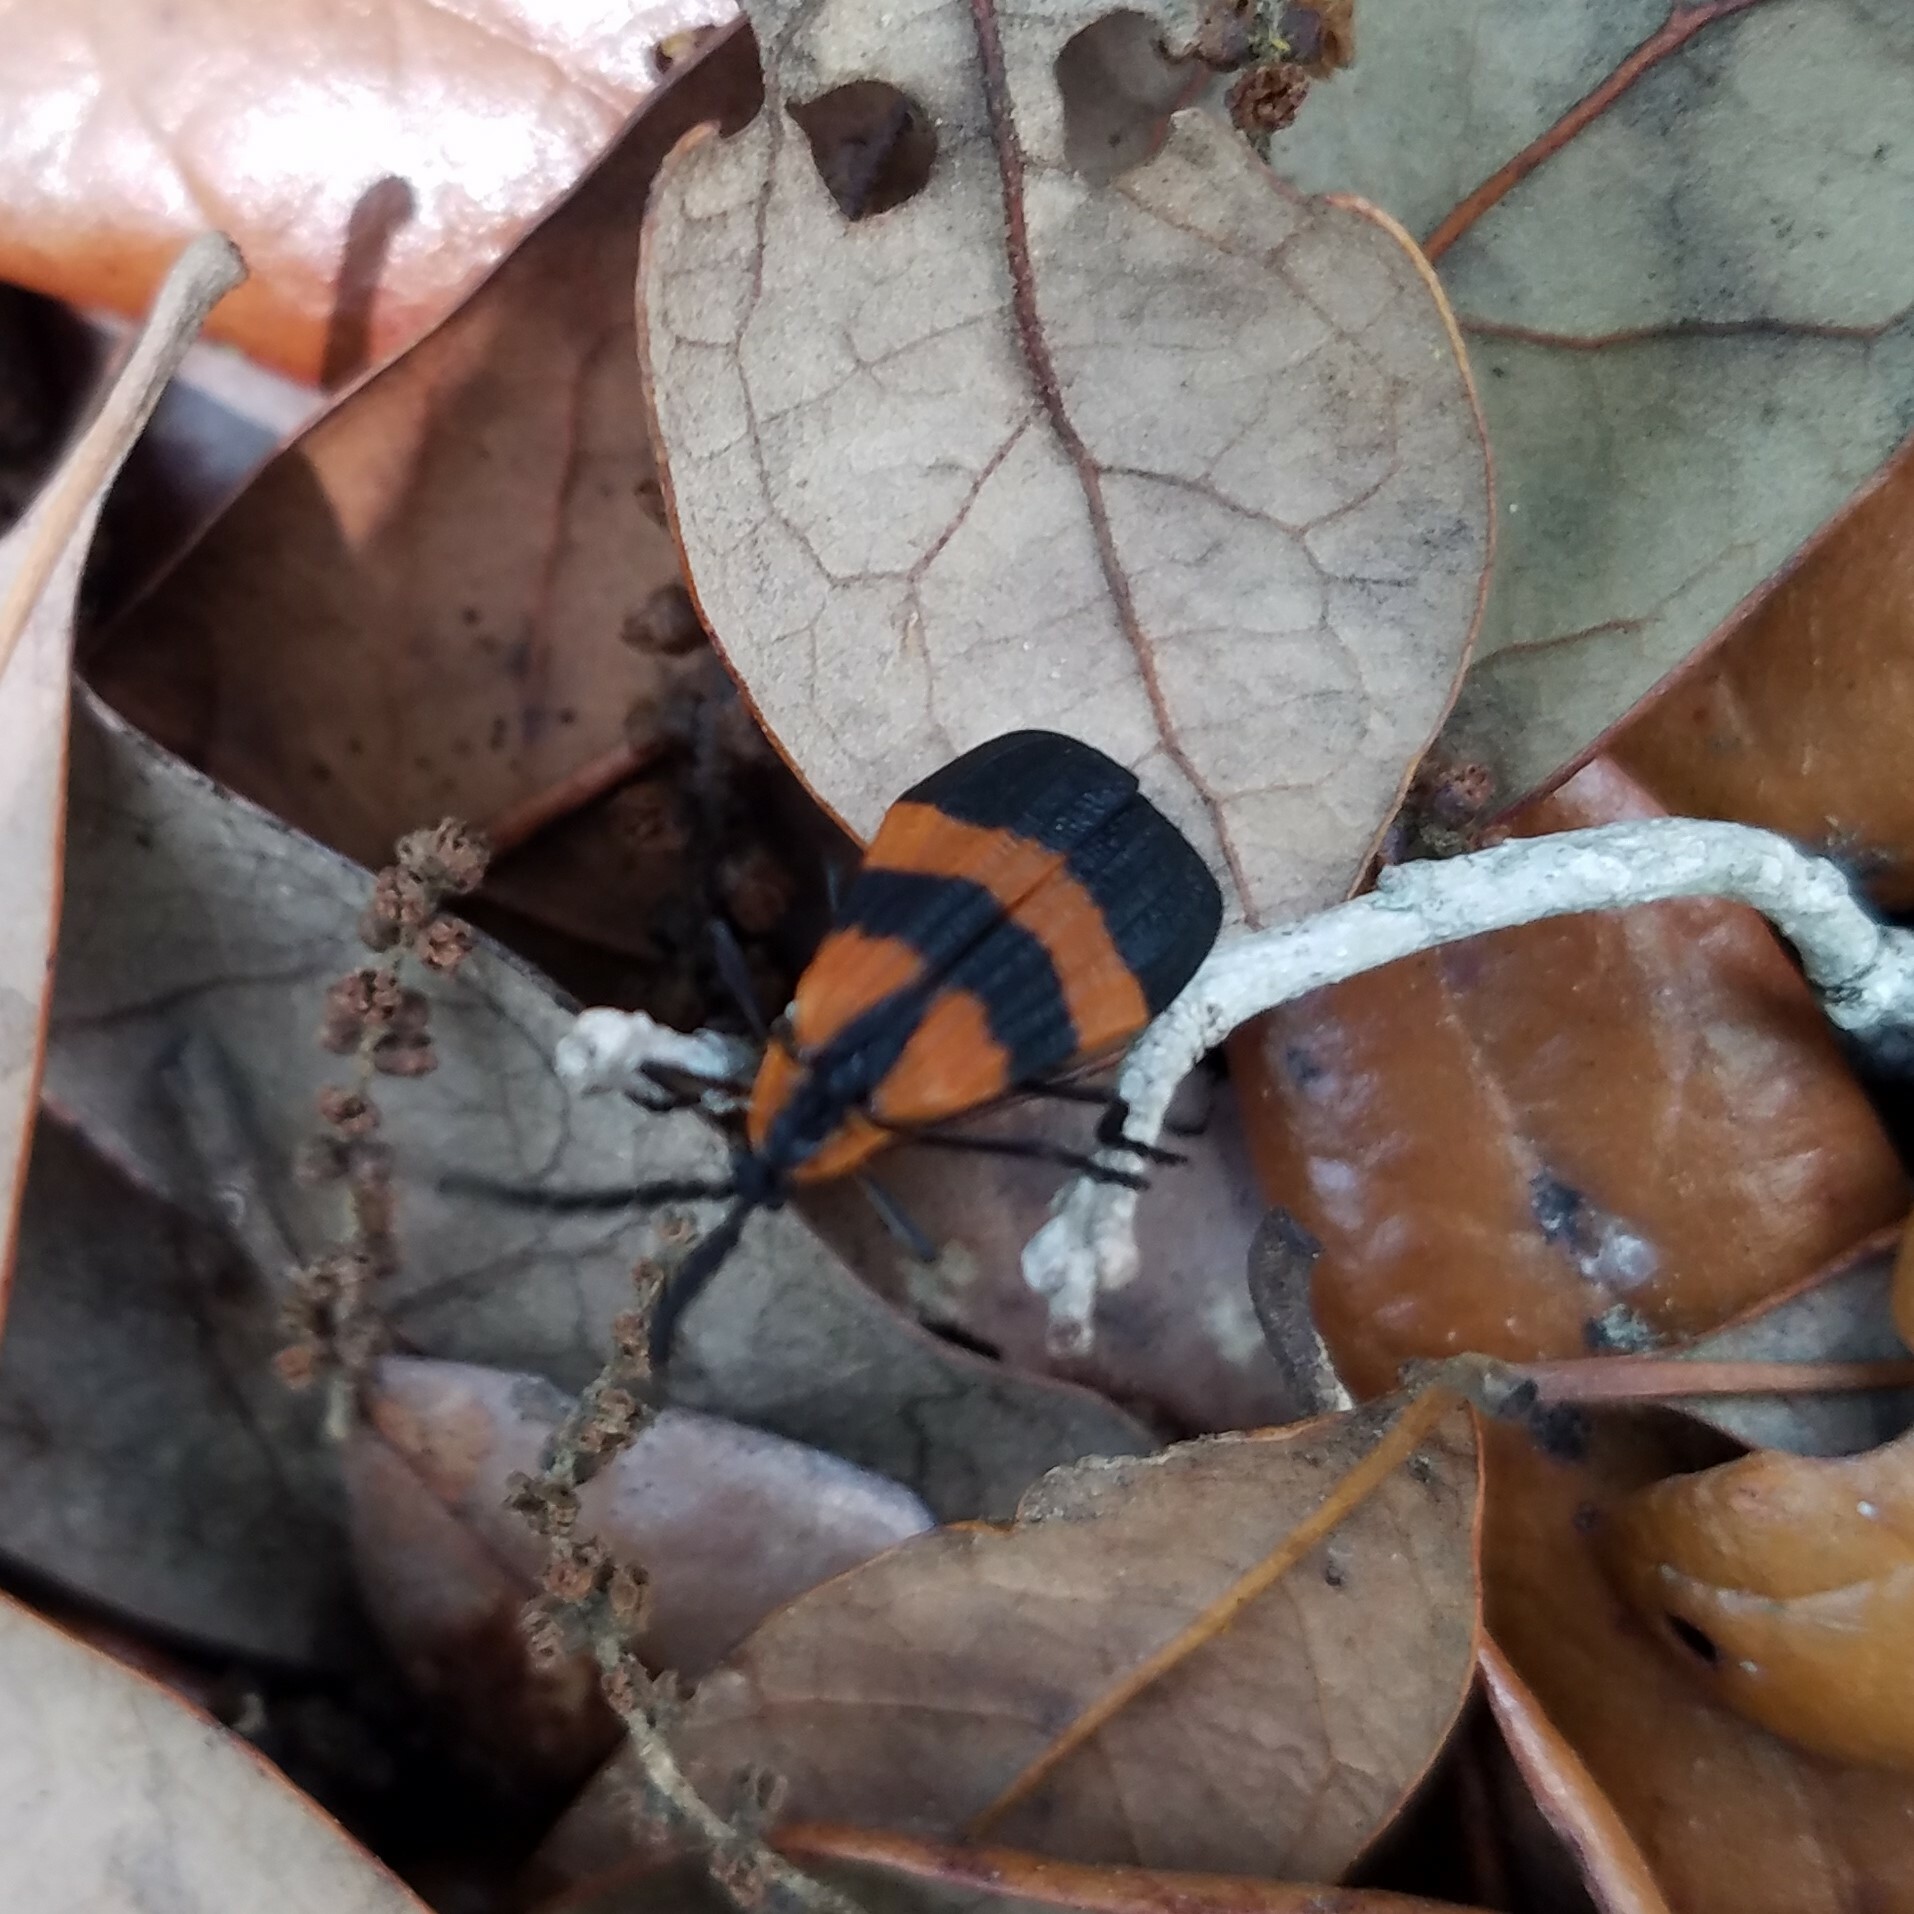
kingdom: Animalia
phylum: Arthropoda
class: Insecta
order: Coleoptera
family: Lycidae
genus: Calopteron
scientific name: Calopteron discrepans
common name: Banded net-winged beetle
